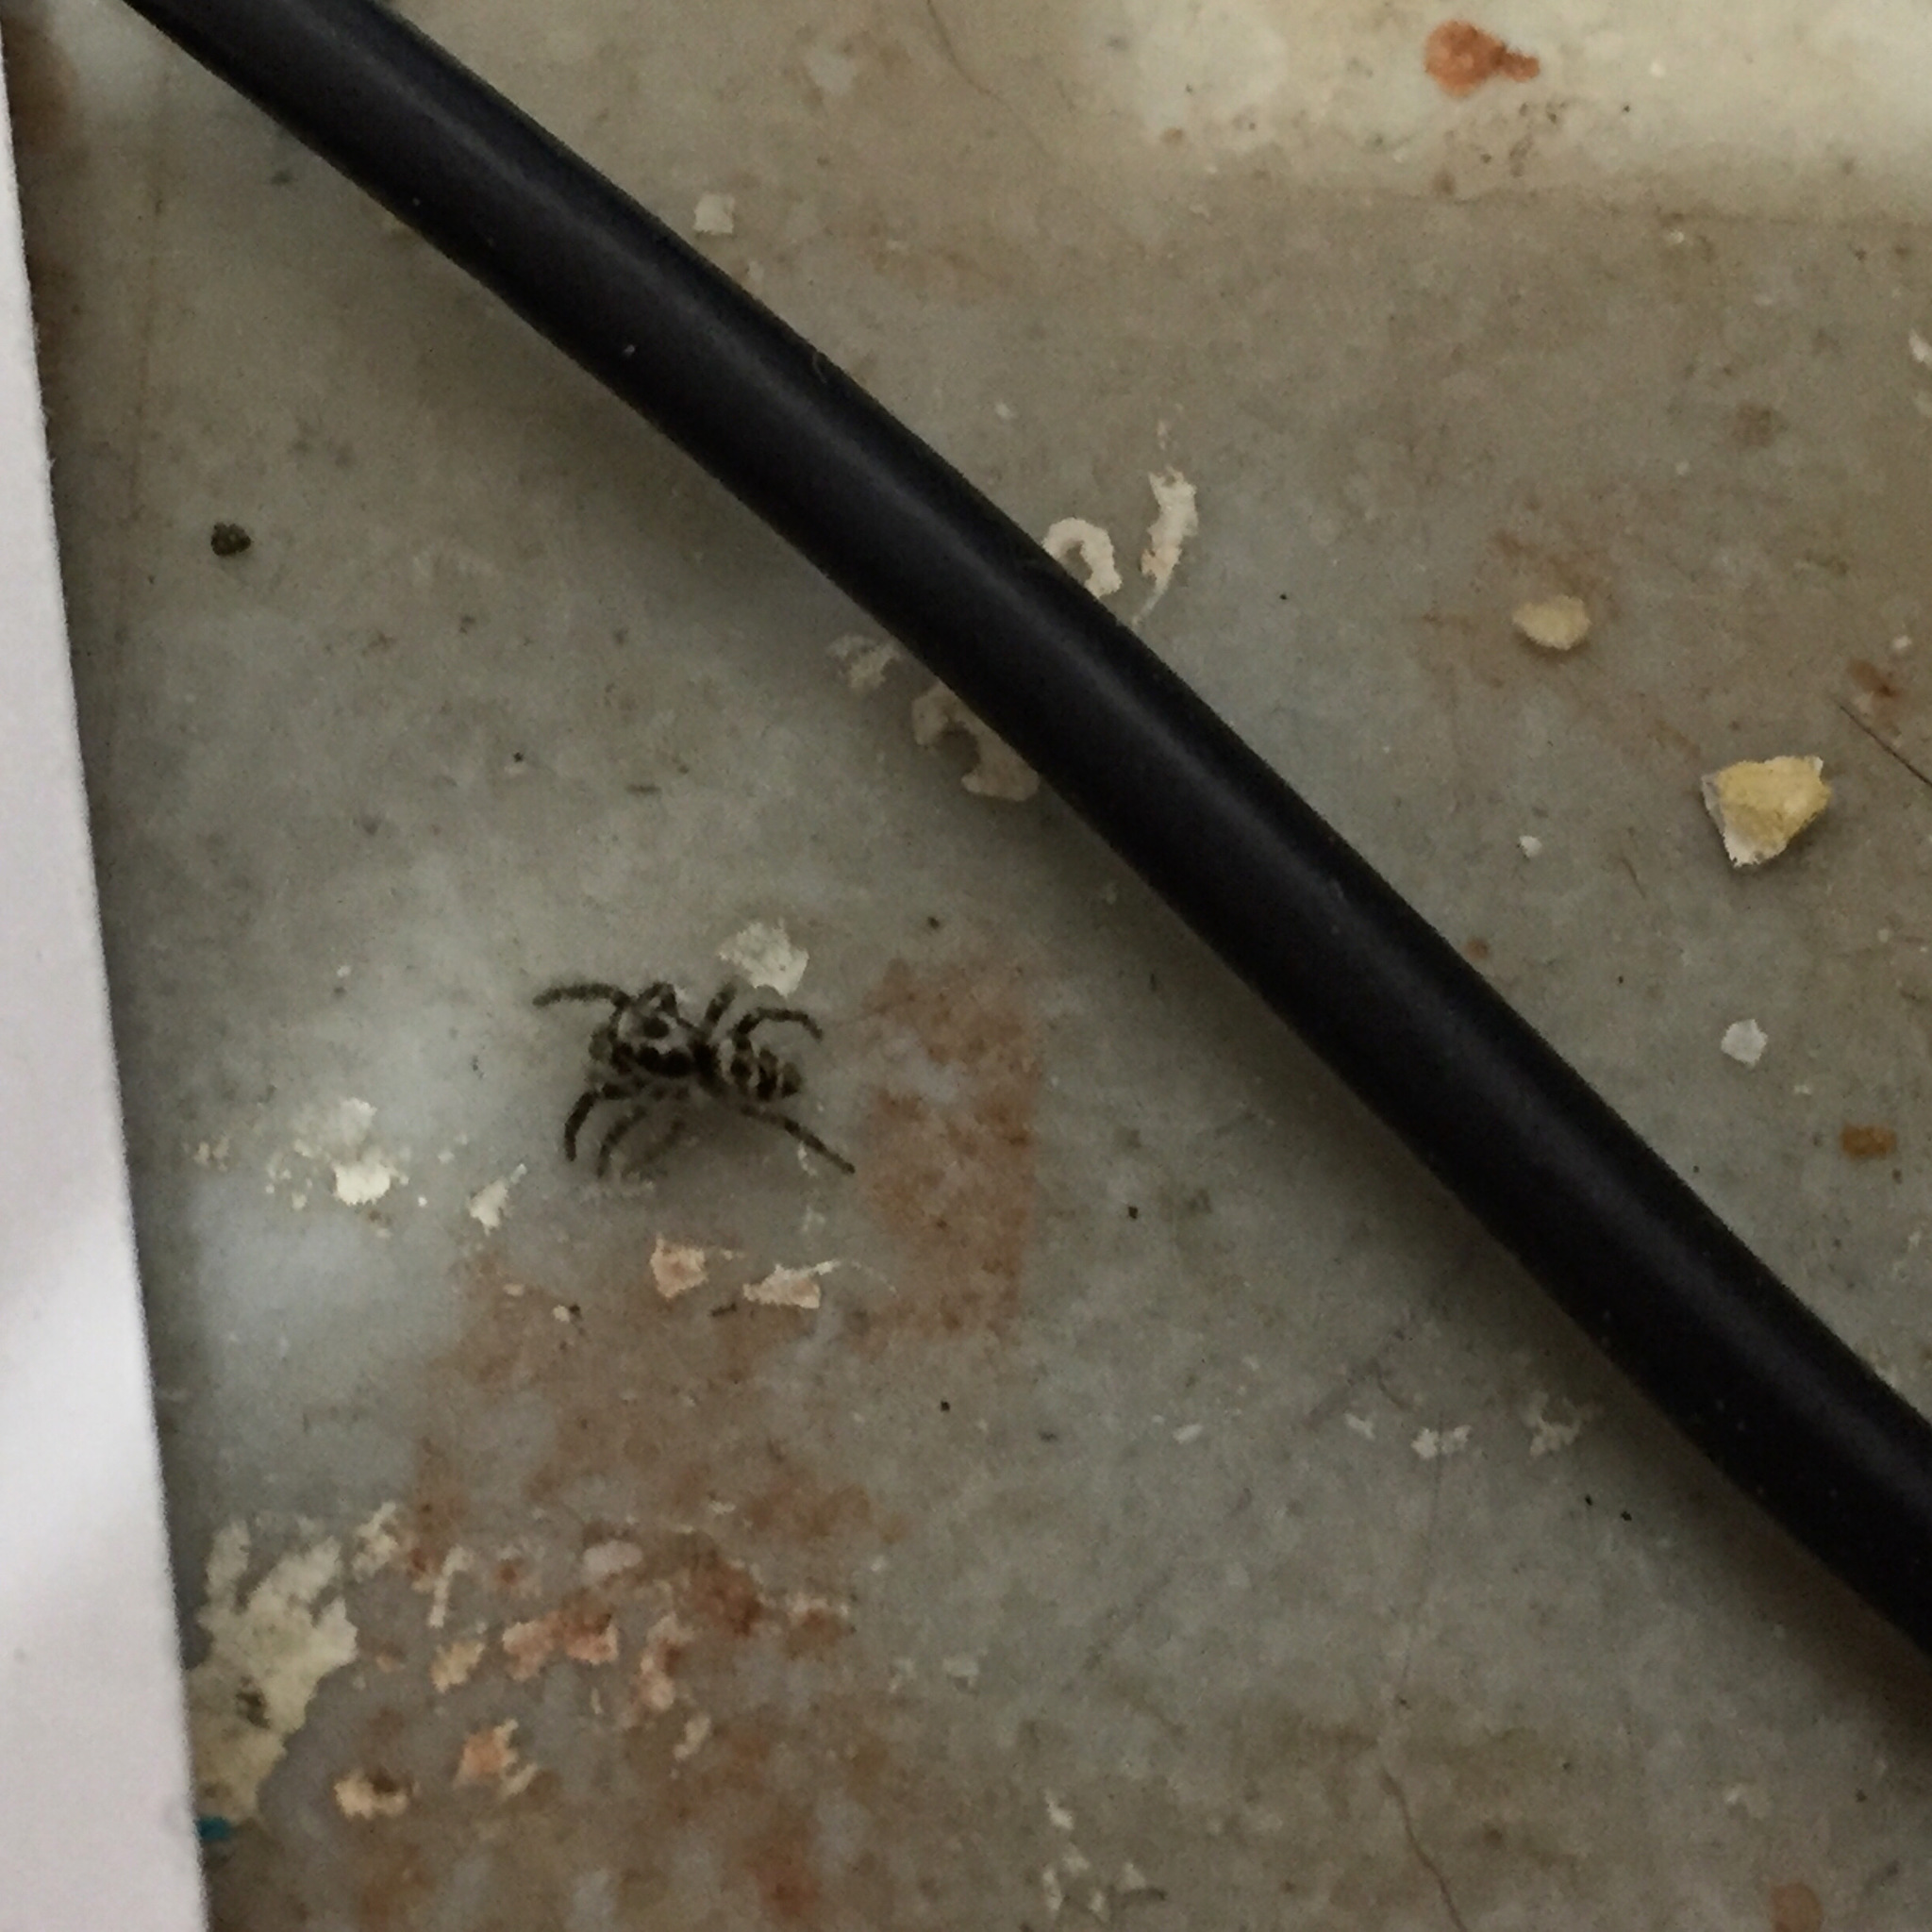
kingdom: Animalia
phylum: Arthropoda
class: Arachnida
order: Araneae
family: Salticidae
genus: Salticus
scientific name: Salticus scenicus
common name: Zebra jumper
